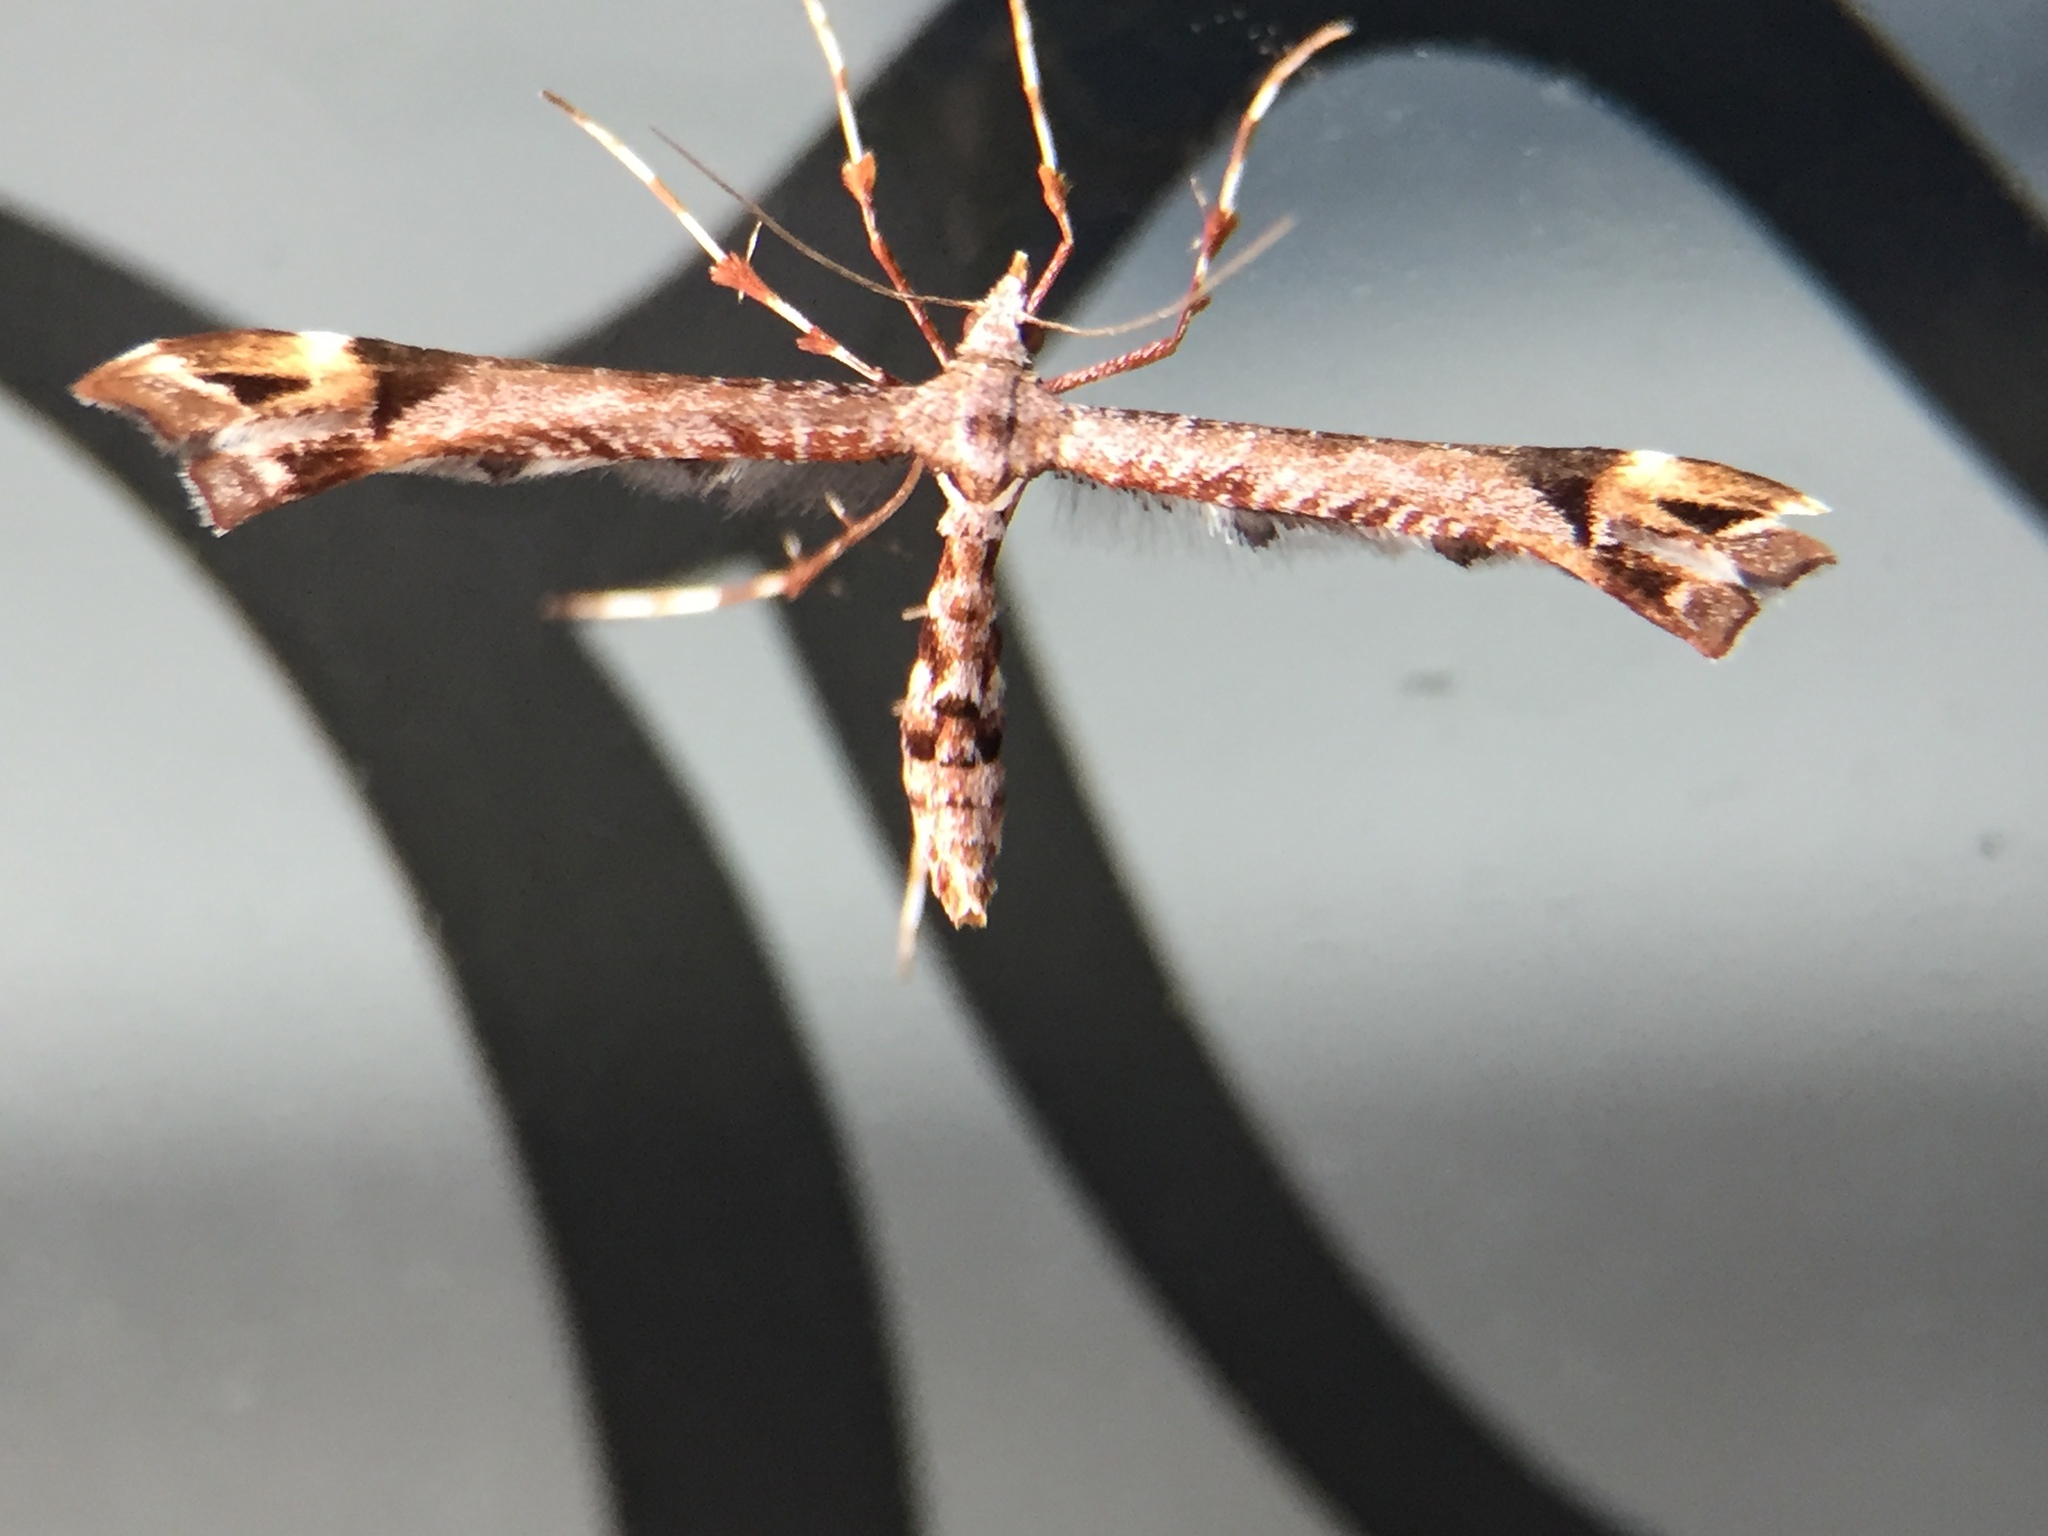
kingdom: Animalia
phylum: Arthropoda
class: Insecta
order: Lepidoptera
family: Pterophoridae
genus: Amblyptilia
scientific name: Amblyptilia falcatalis
